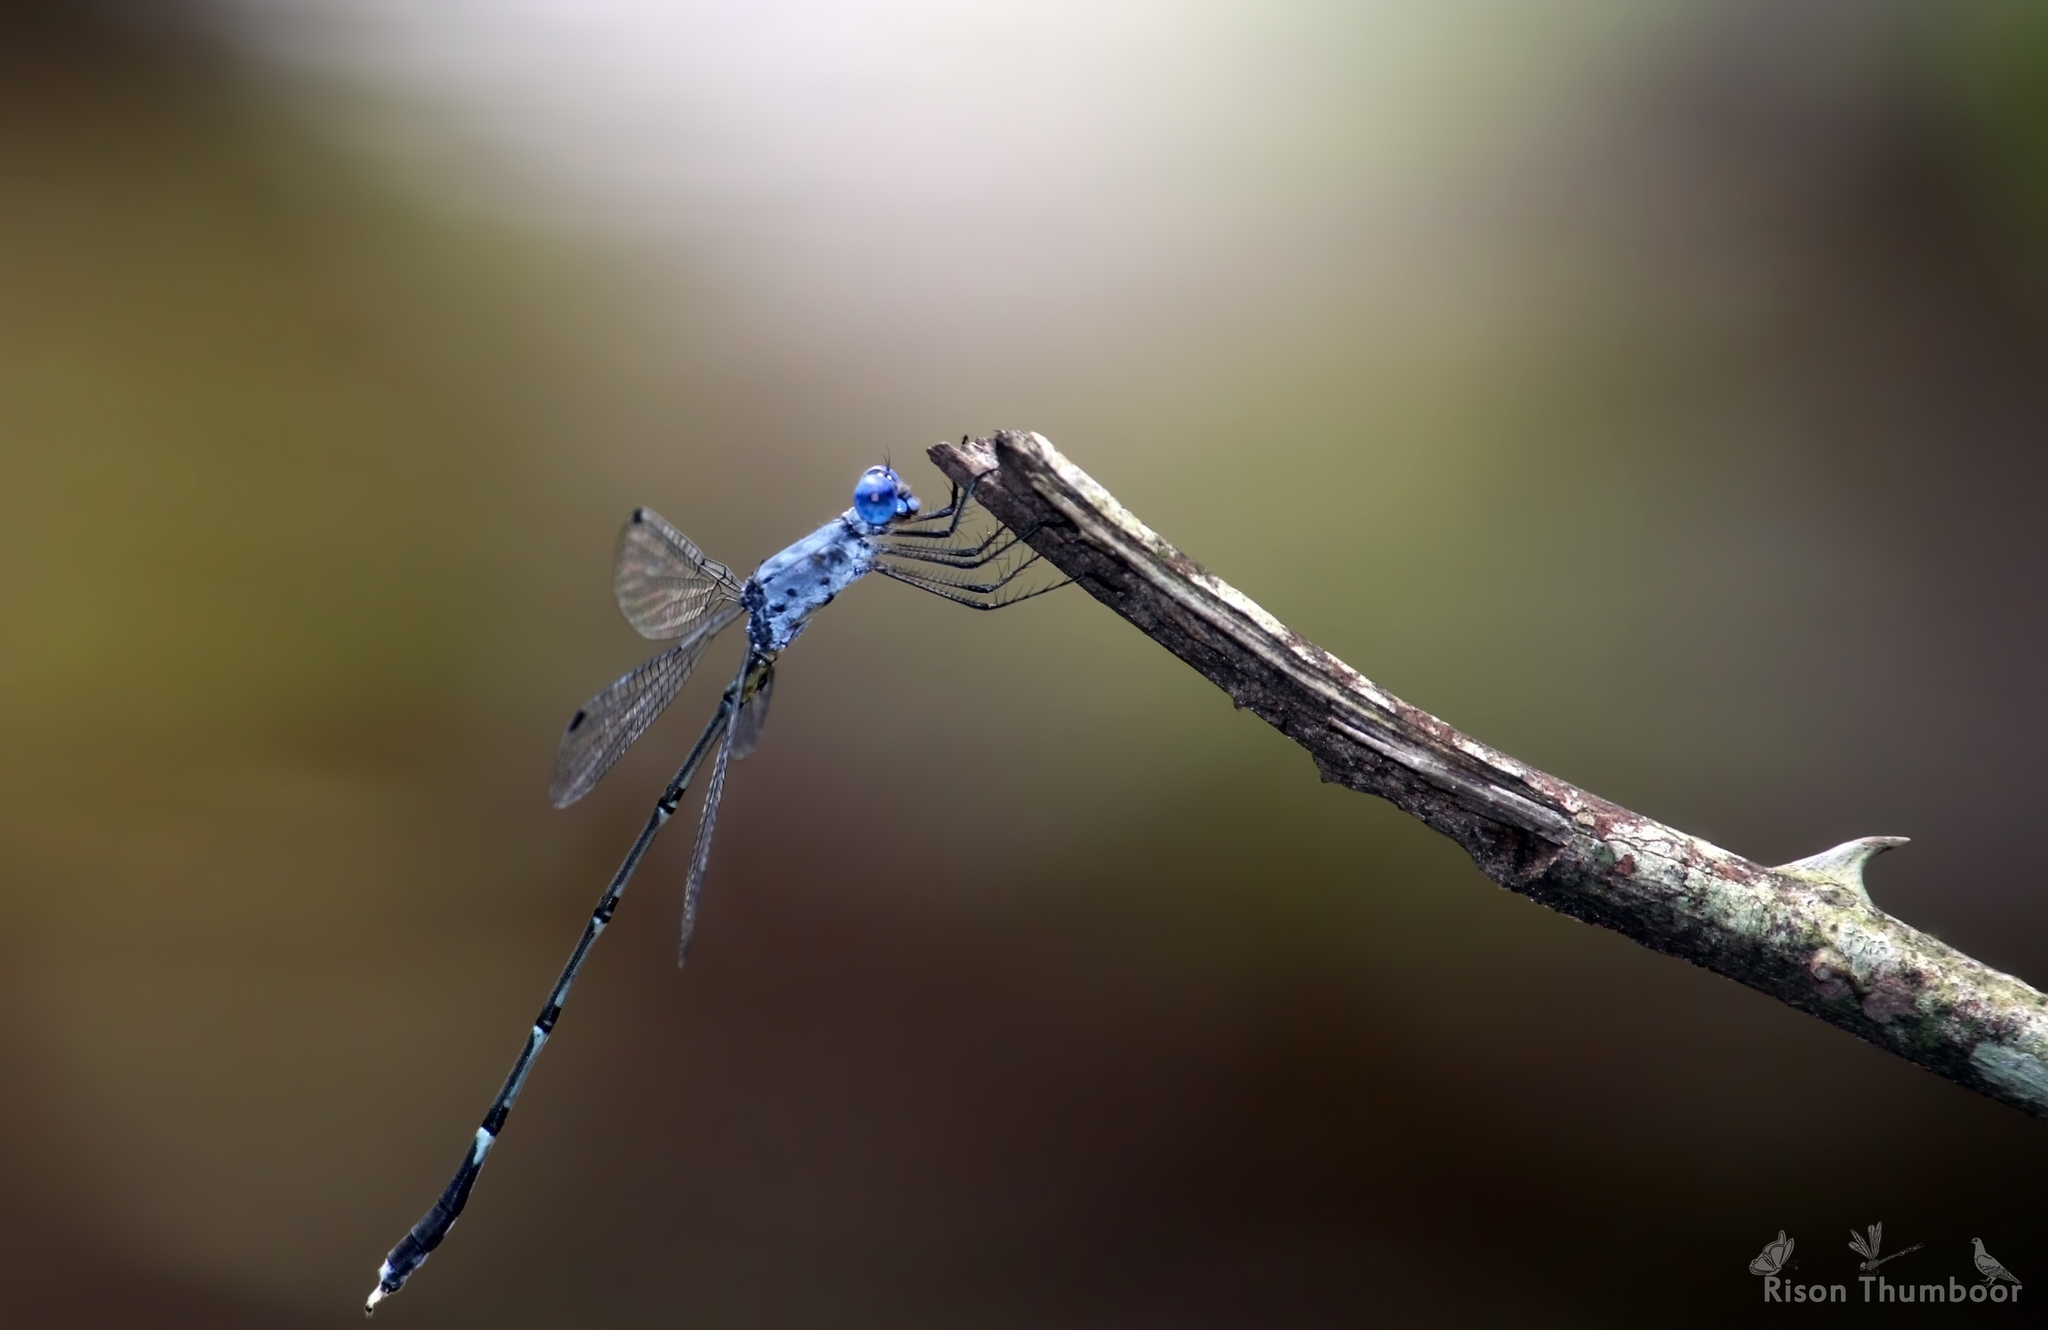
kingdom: Animalia
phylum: Arthropoda
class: Insecta
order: Odonata
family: Lestidae
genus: Lestes
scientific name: Lestes dorothea
